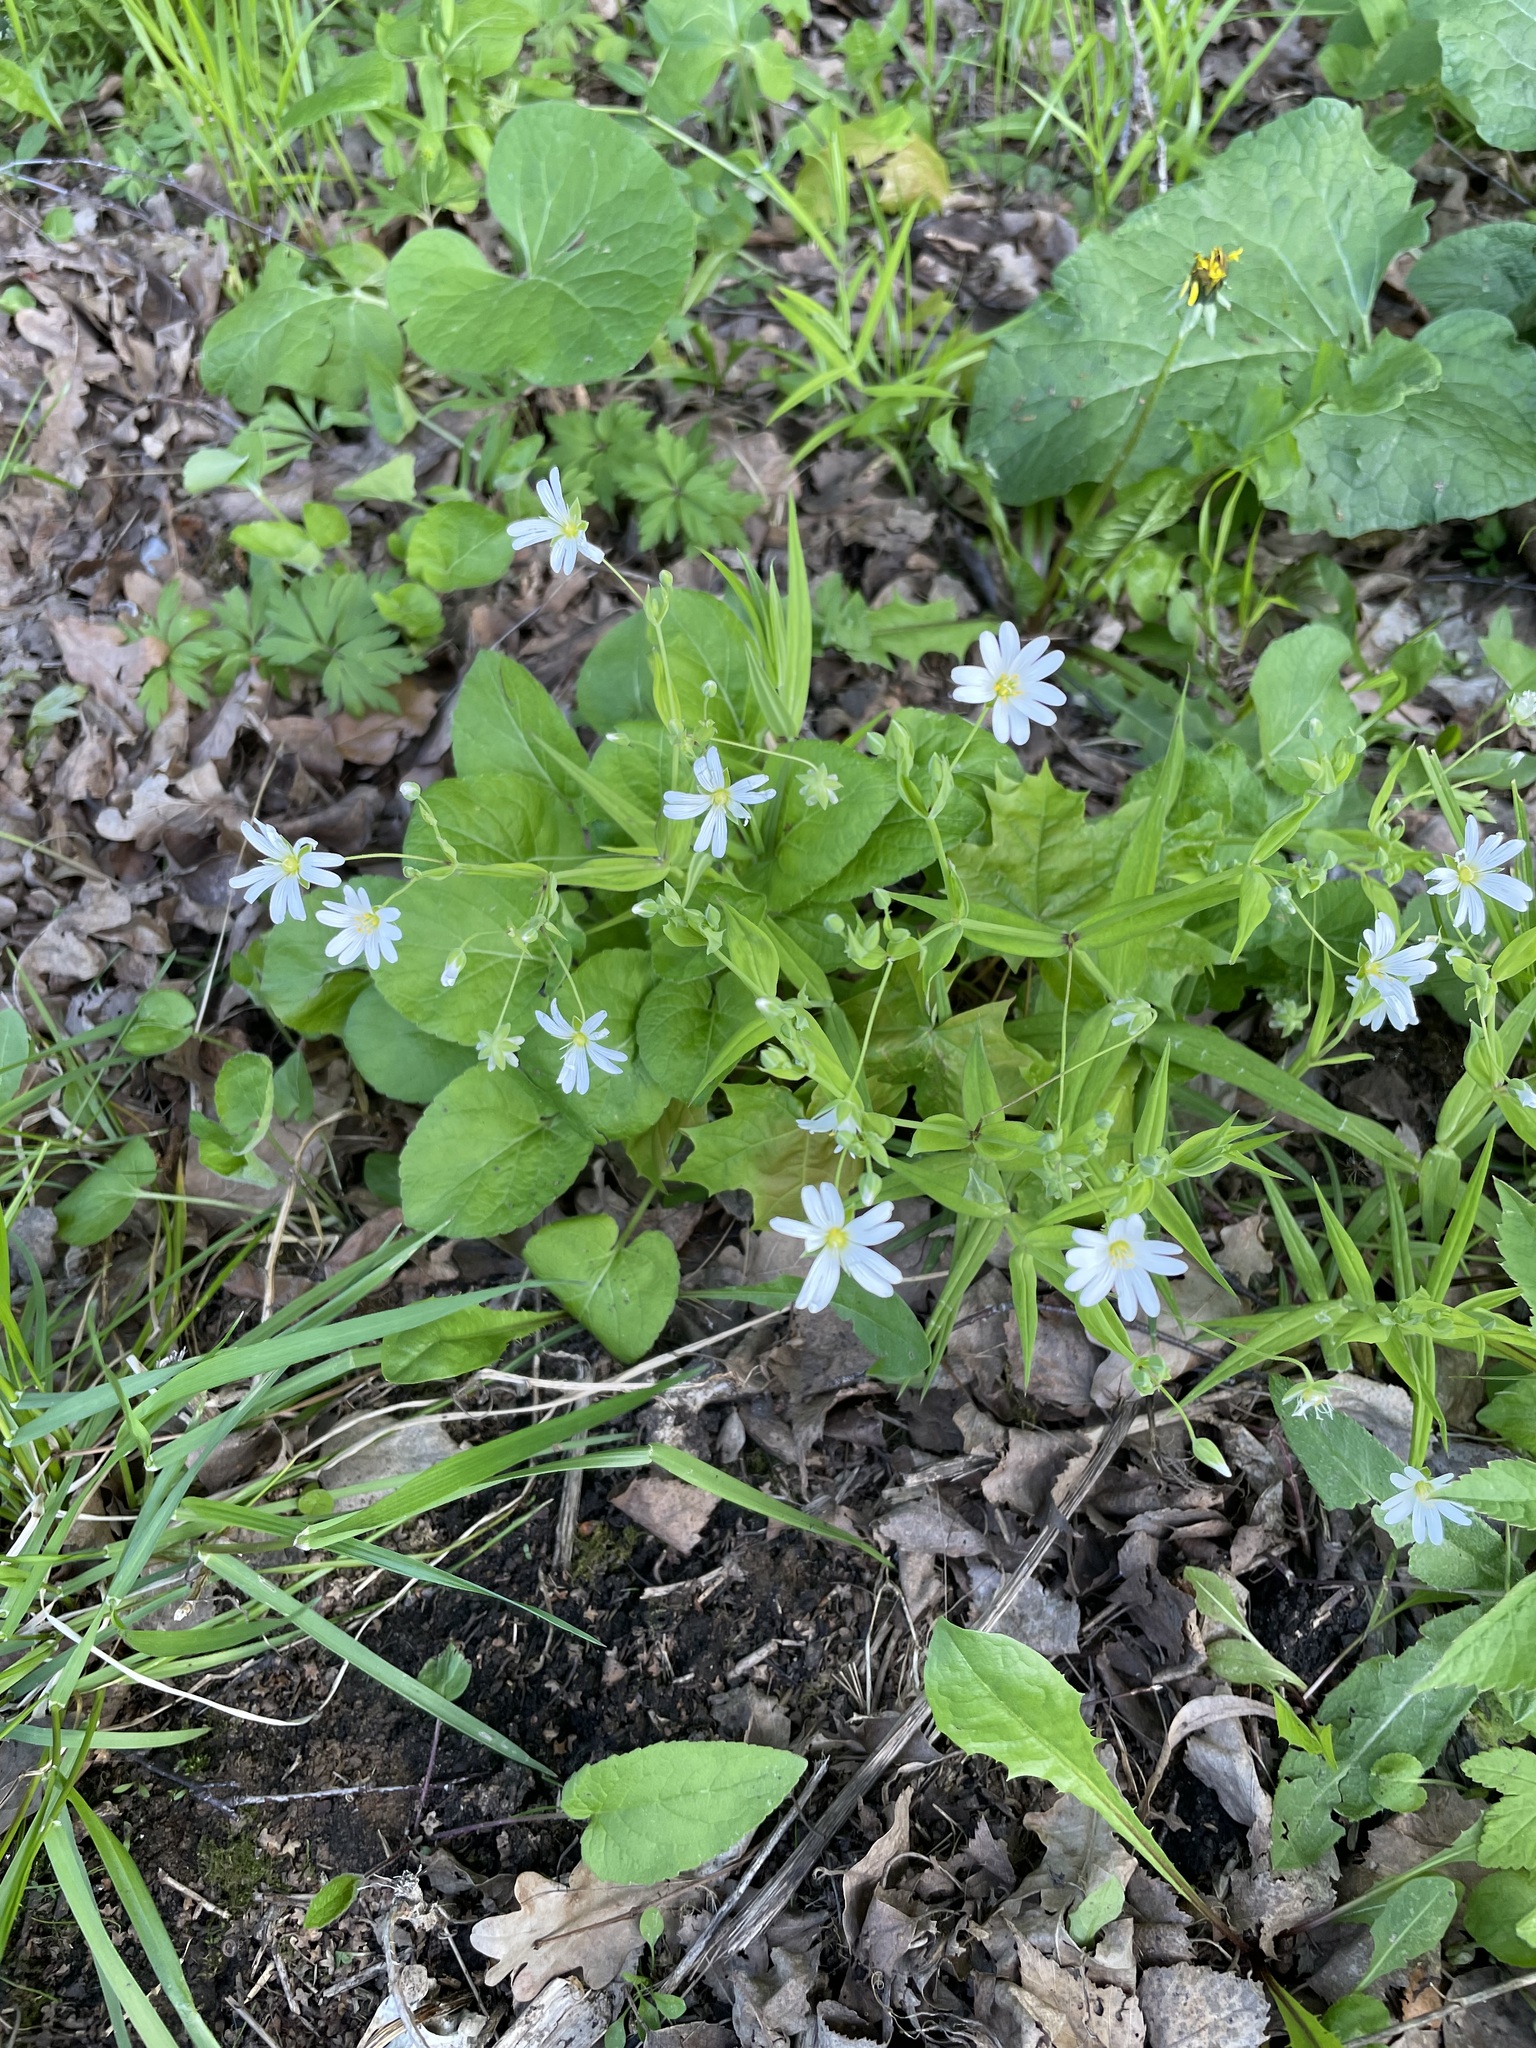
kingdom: Plantae
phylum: Tracheophyta
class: Magnoliopsida
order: Caryophyllales
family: Caryophyllaceae
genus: Rabelera
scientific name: Rabelera holostea
